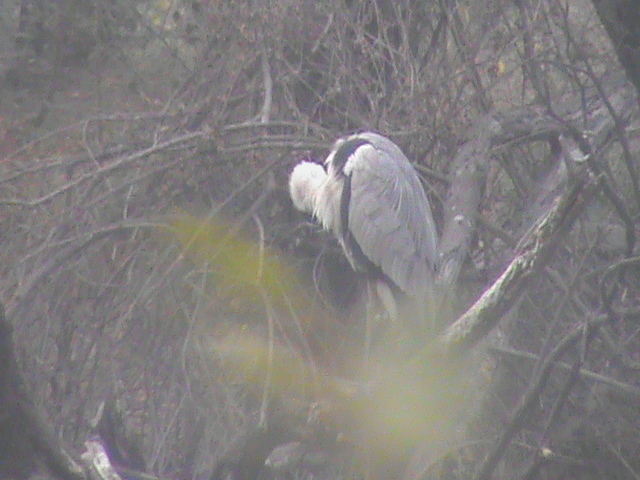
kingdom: Animalia
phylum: Chordata
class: Aves
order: Pelecaniformes
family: Ardeidae
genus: Ardea
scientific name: Ardea cinerea
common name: Grey heron
